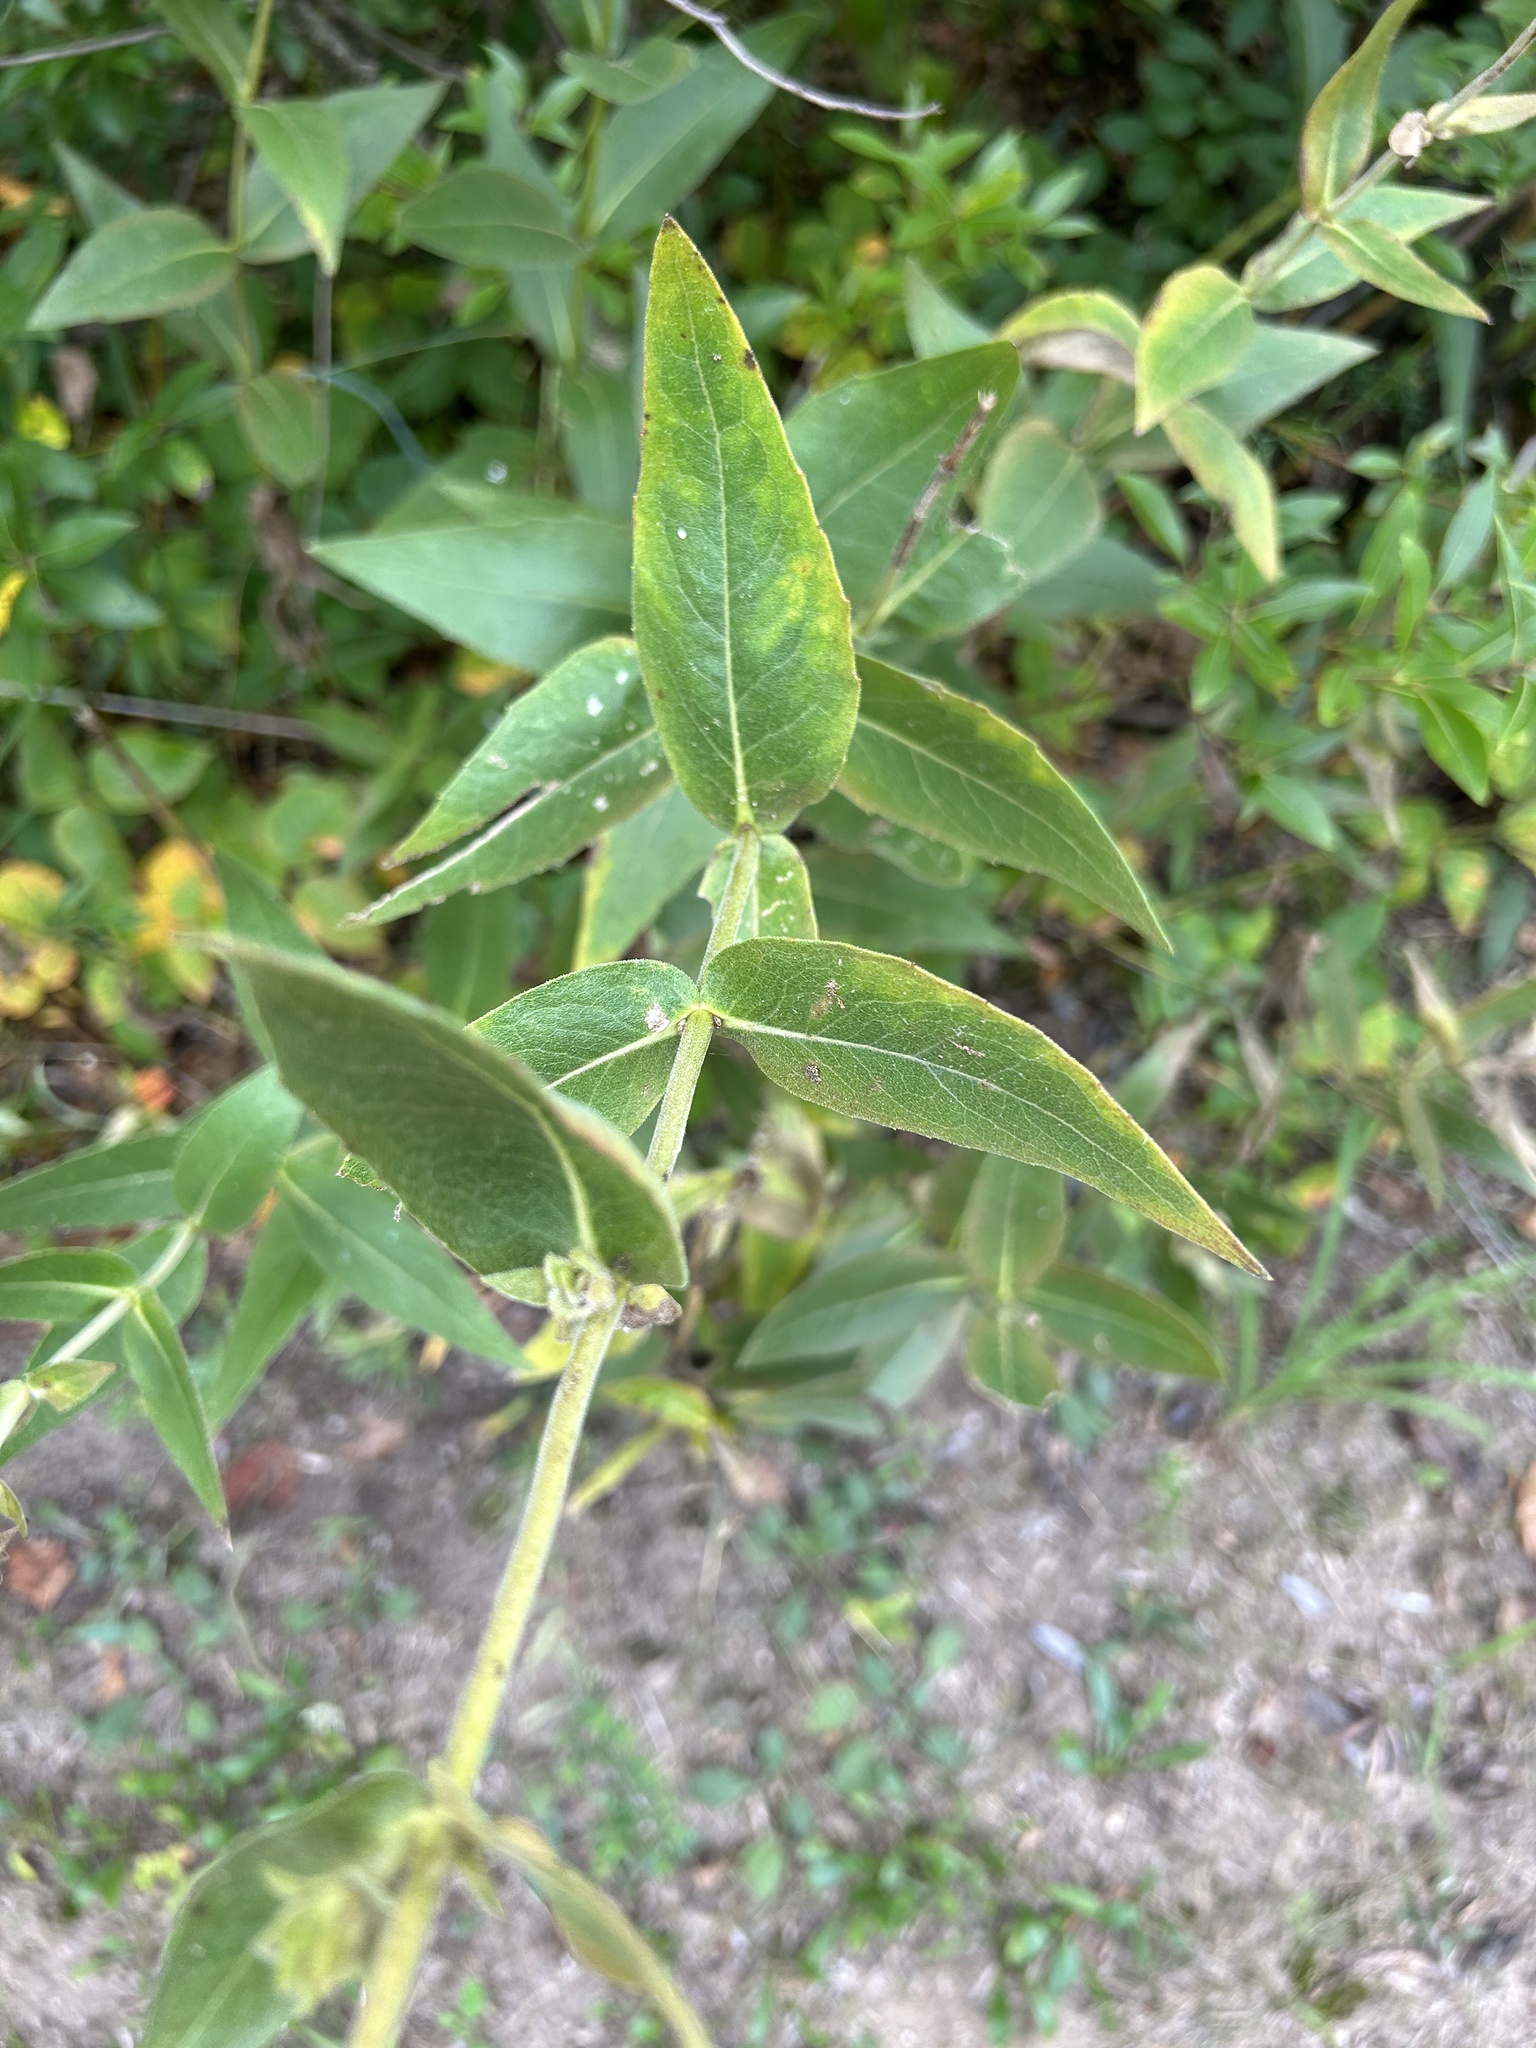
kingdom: Plantae
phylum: Tracheophyta
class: Magnoliopsida
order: Asterales
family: Asteraceae
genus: Silphium
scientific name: Silphium integrifolium
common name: Whole-leaf rosinweed
